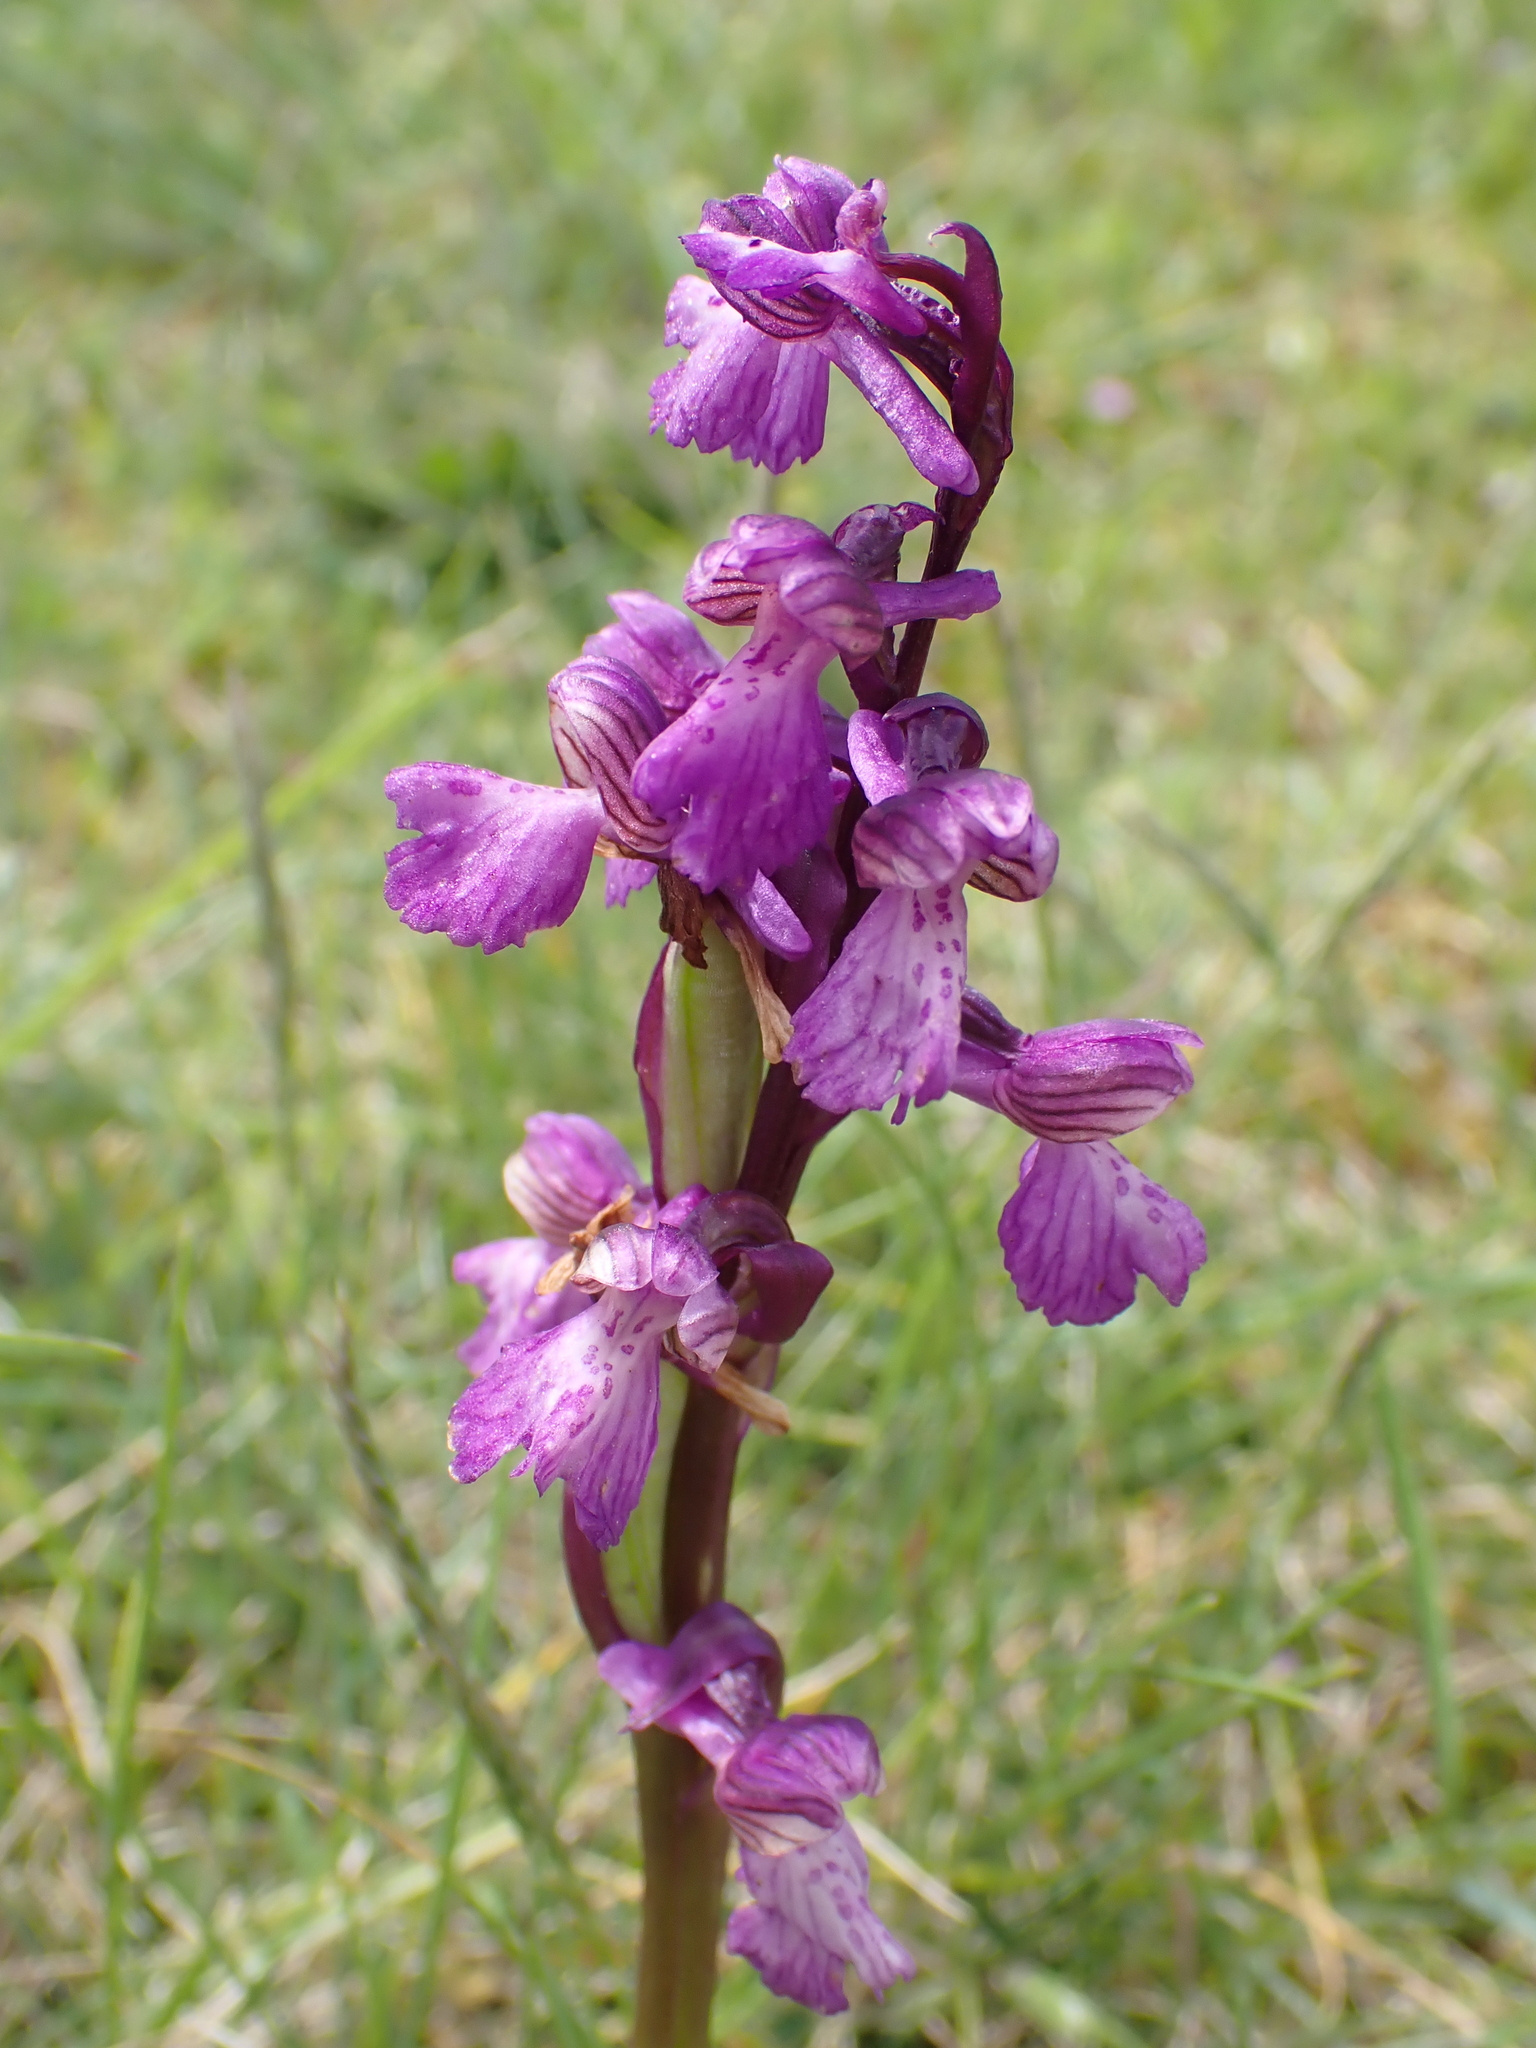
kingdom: Plantae
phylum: Tracheophyta
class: Liliopsida
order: Asparagales
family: Orchidaceae
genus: Anacamptis
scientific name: Anacamptis morio
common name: Green-winged orchid
